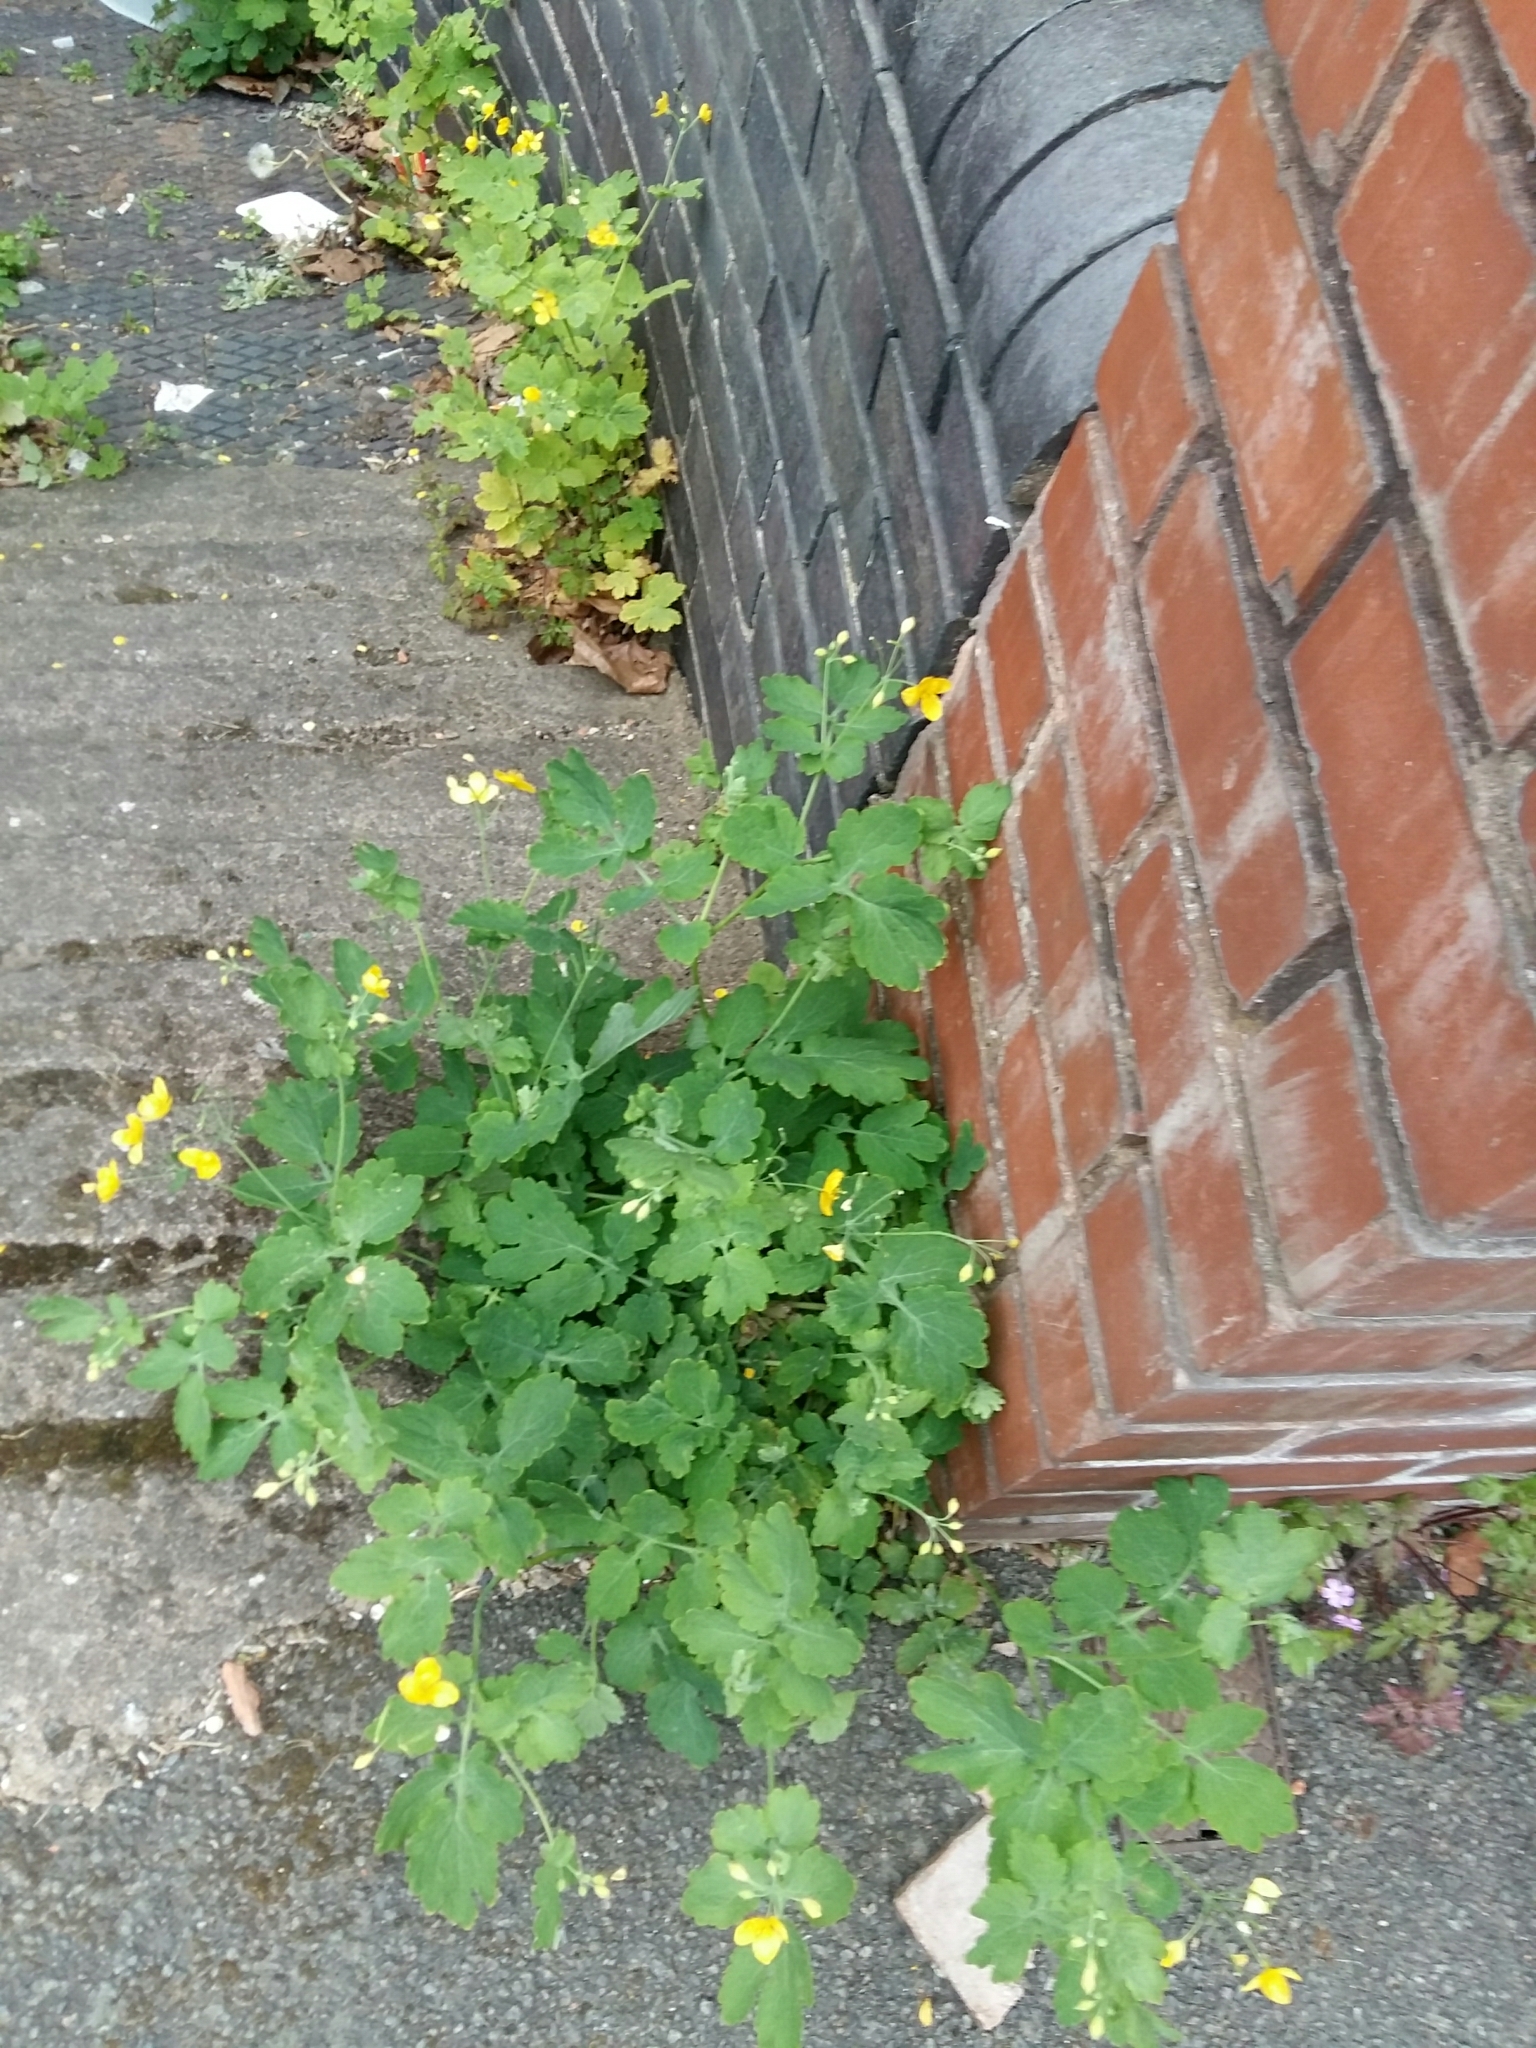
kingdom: Plantae
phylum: Tracheophyta
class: Magnoliopsida
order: Ranunculales
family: Papaveraceae
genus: Chelidonium
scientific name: Chelidonium majus
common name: Greater celandine
